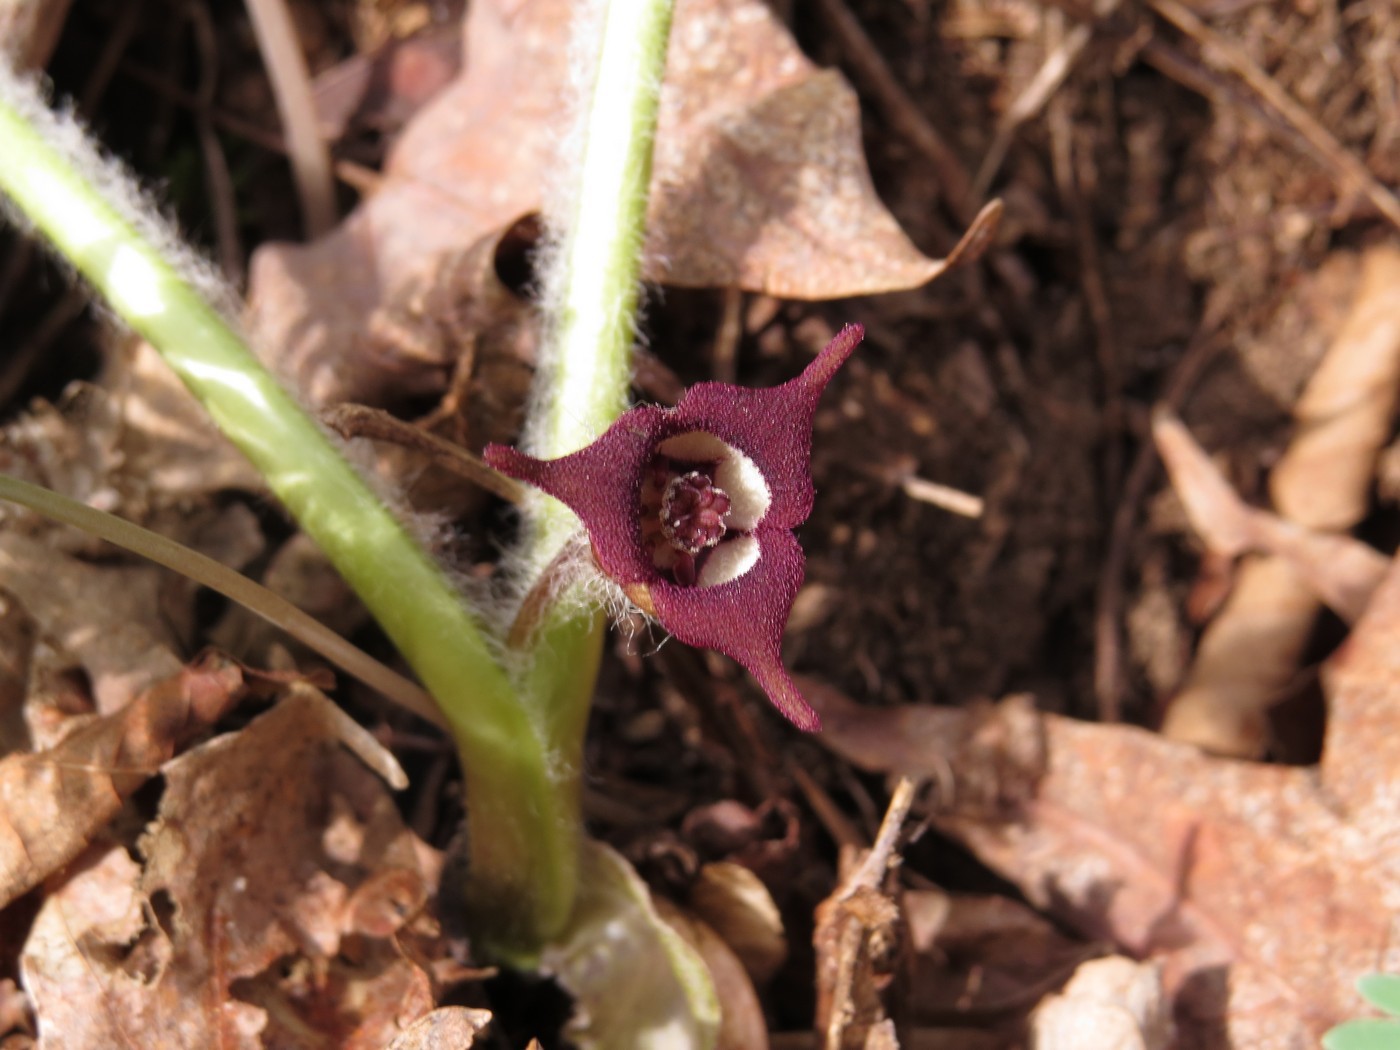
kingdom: Plantae
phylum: Tracheophyta
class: Magnoliopsida
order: Piperales
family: Aristolochiaceae
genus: Asarum
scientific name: Asarum canadense
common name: Wild ginger
